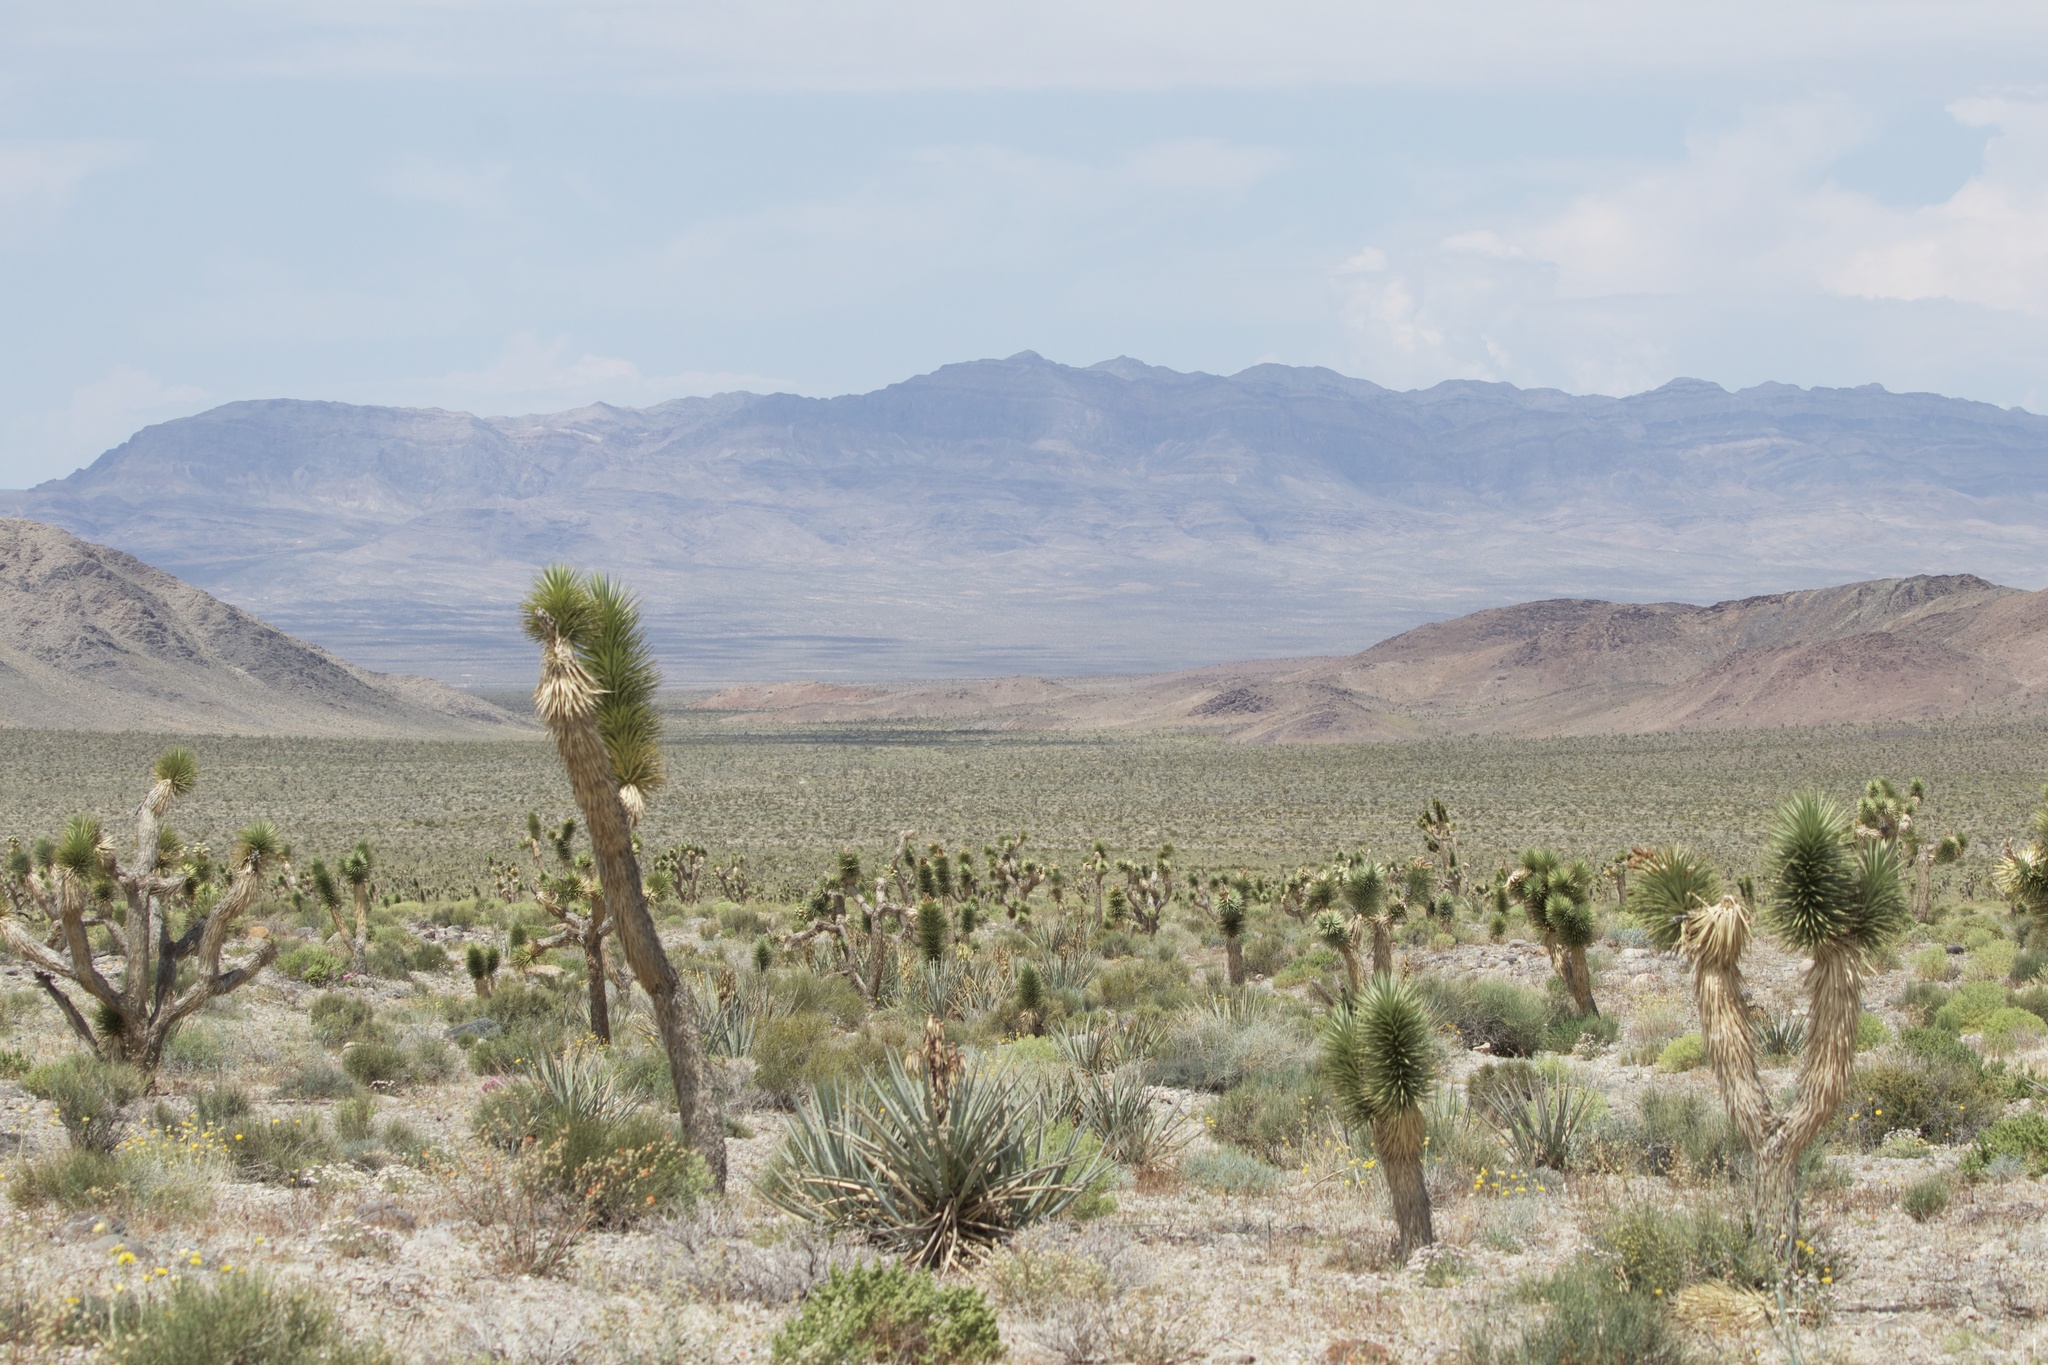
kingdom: Plantae
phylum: Tracheophyta
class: Liliopsida
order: Asparagales
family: Asparagaceae
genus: Yucca
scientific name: Yucca brevifolia
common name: Joshua tree
